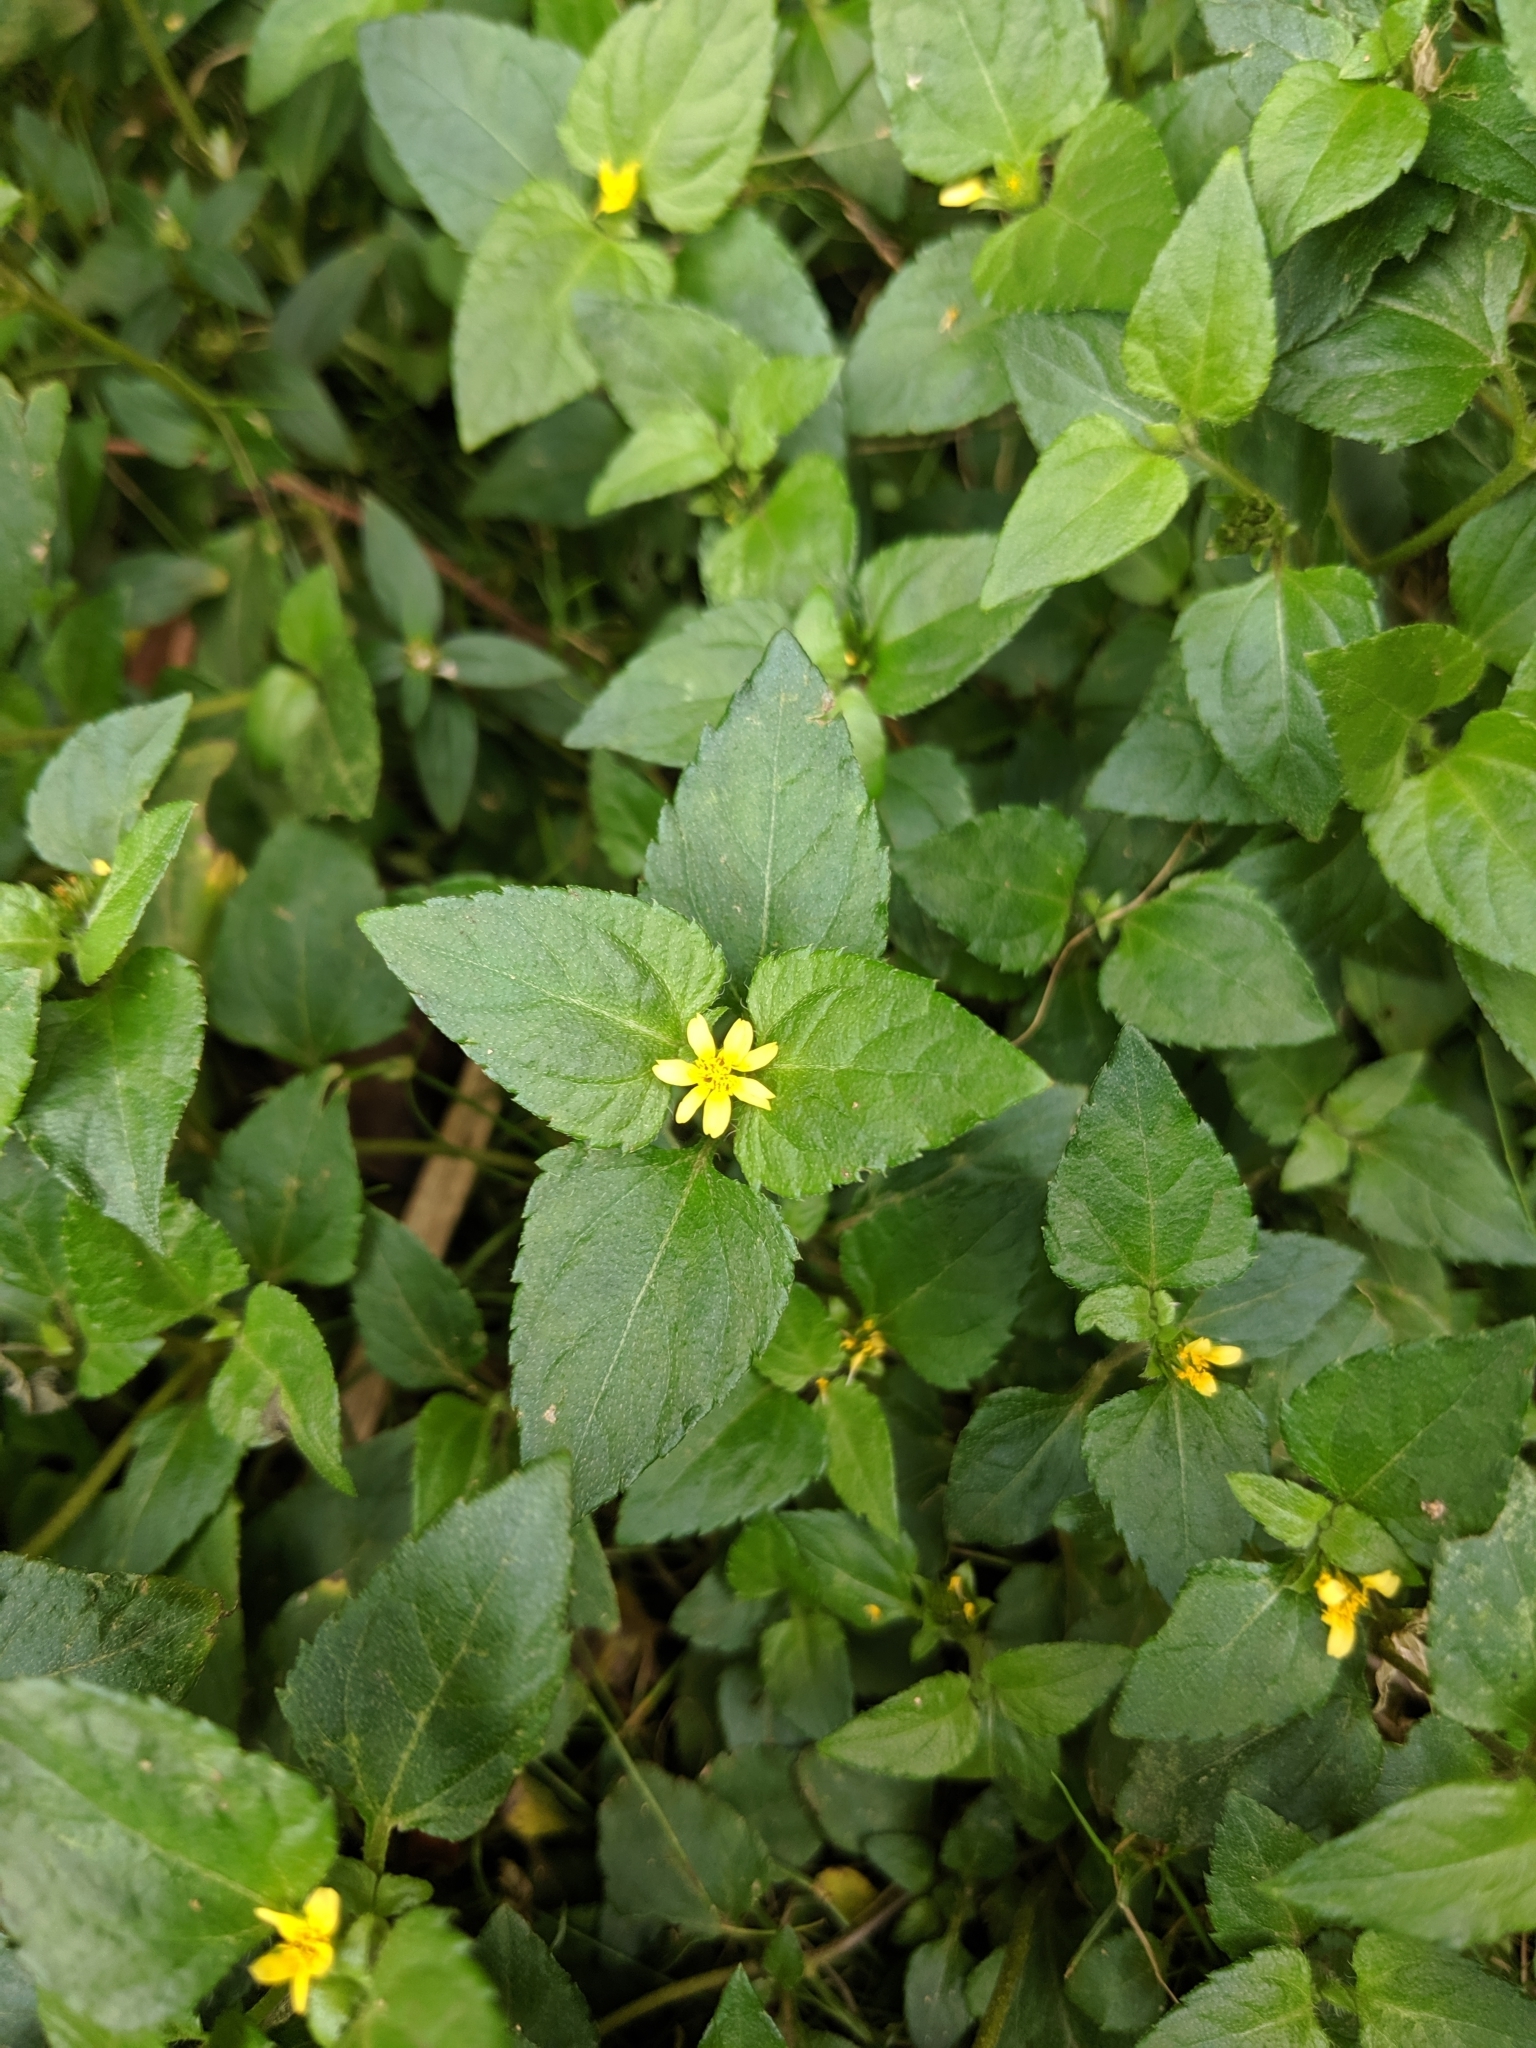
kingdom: Plantae
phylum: Tracheophyta
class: Magnoliopsida
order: Asterales
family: Asteraceae
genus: Calyptocarpus
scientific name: Calyptocarpus vialis
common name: Straggler daisy
